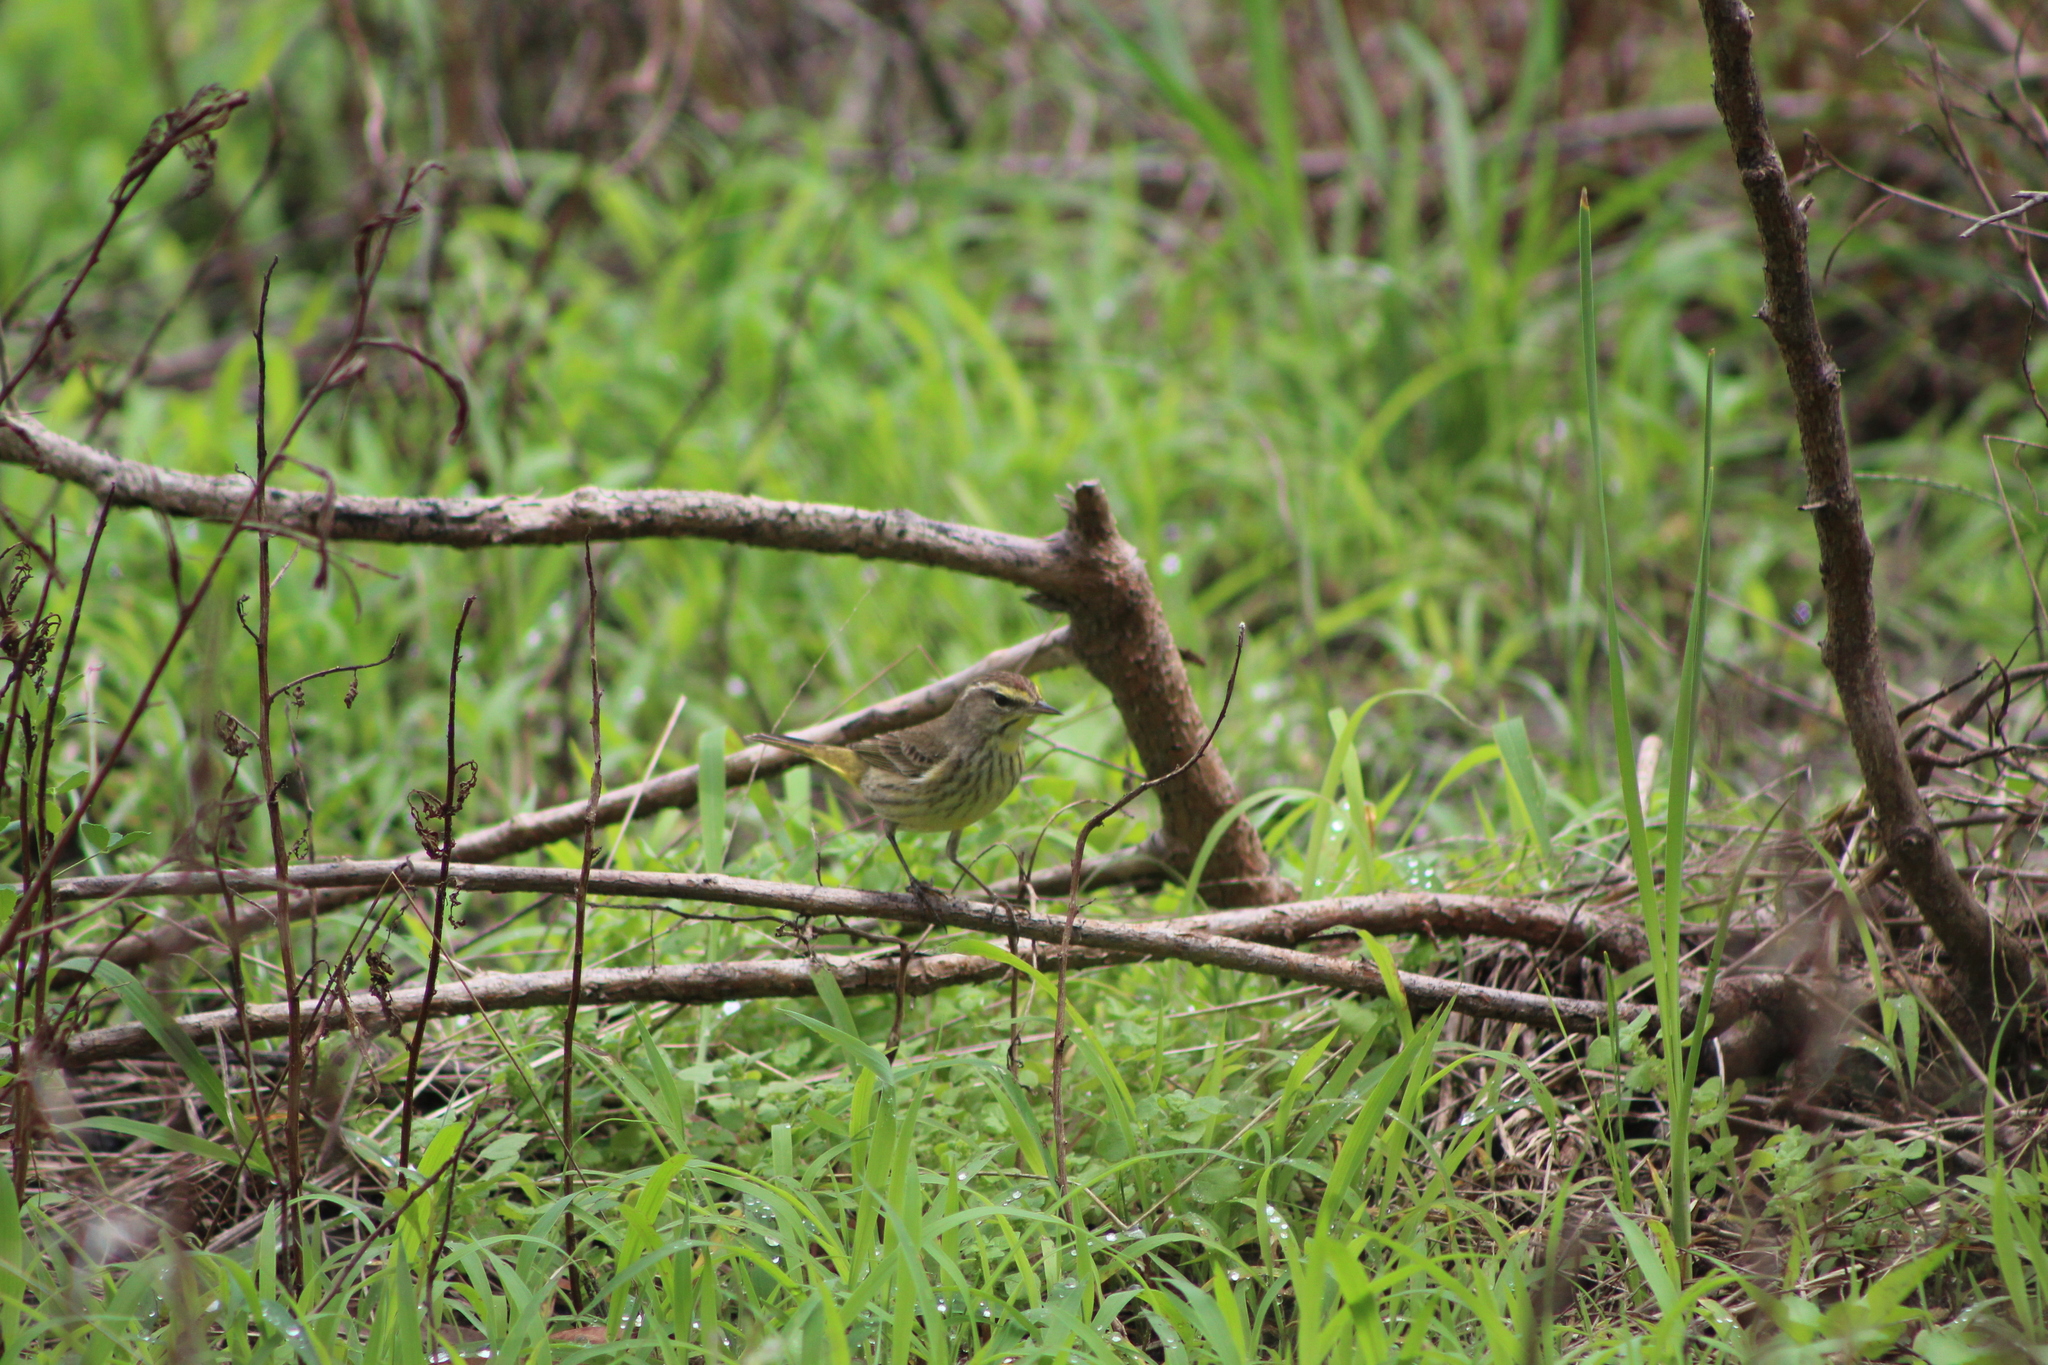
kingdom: Animalia
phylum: Chordata
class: Aves
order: Passeriformes
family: Parulidae
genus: Setophaga
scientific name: Setophaga palmarum
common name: Palm warbler
